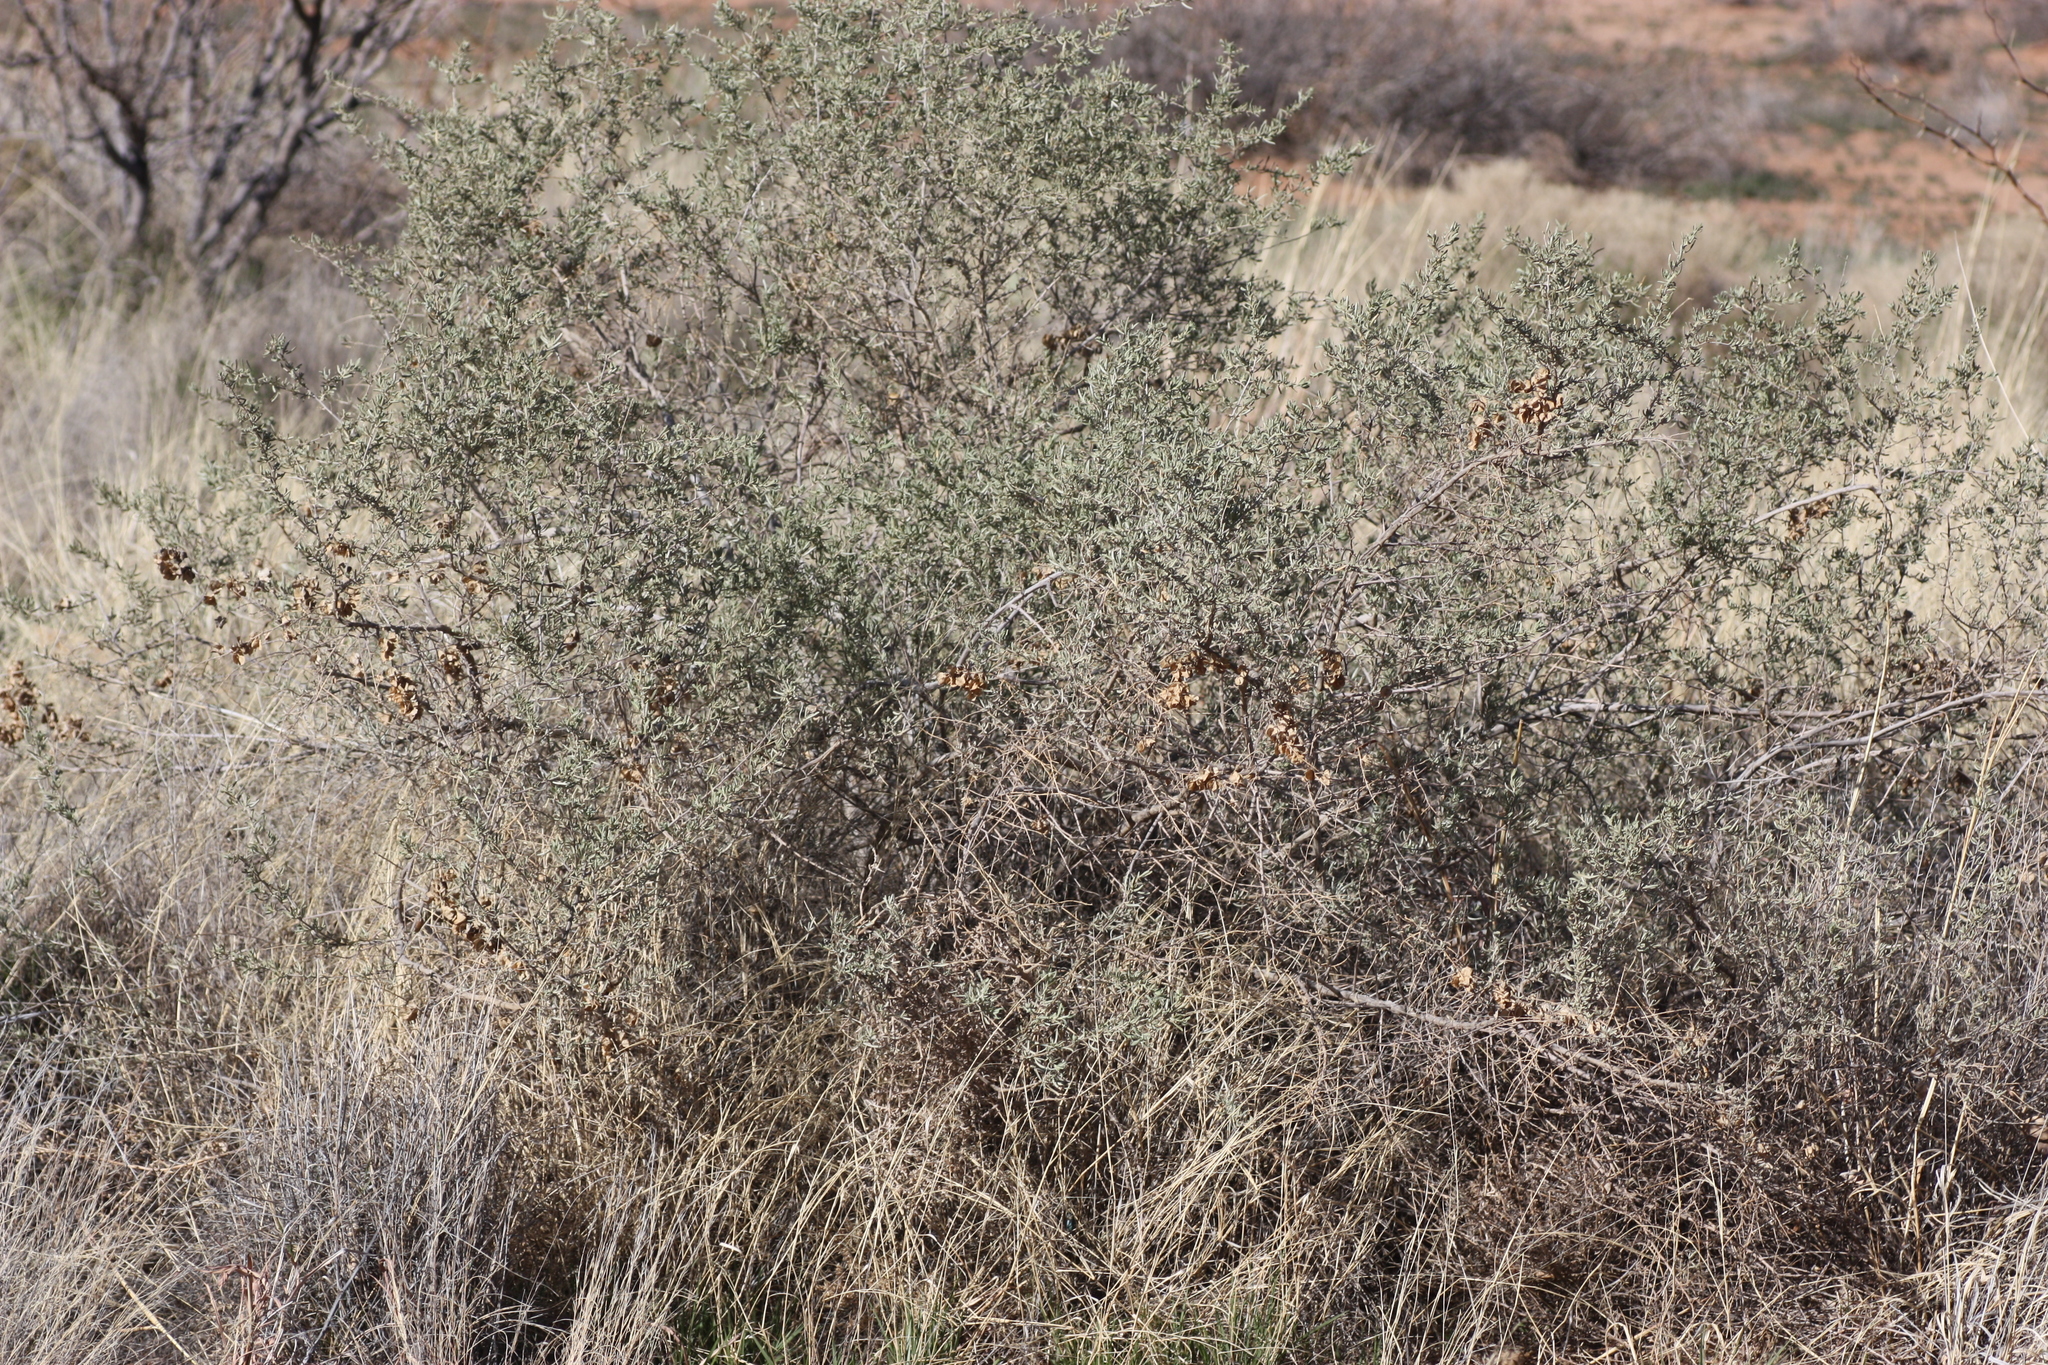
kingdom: Plantae
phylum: Tracheophyta
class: Magnoliopsida
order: Caryophyllales
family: Amaranthaceae
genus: Atriplex
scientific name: Atriplex canescens
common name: Four-wing saltbush
